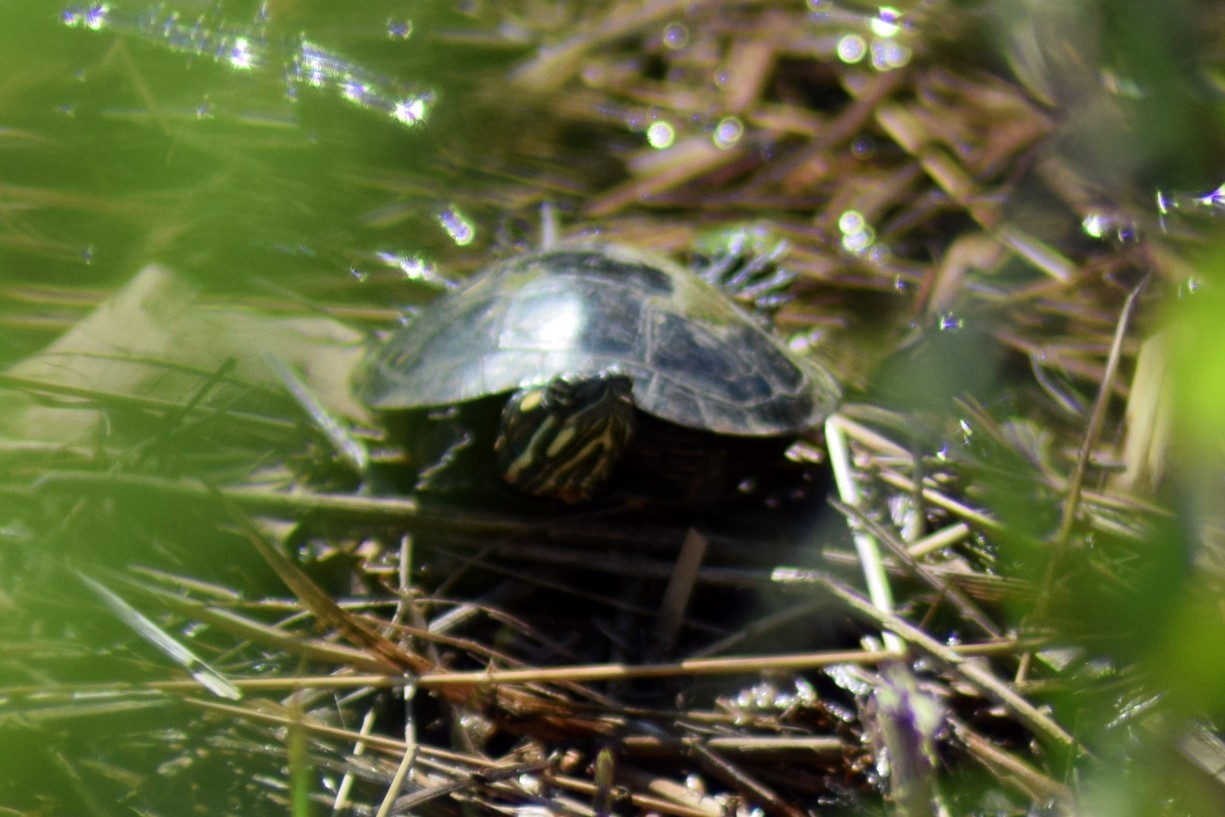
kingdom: Animalia
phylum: Chordata
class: Testudines
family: Emydidae
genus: Chrysemys
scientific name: Chrysemys picta
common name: Painted turtle
